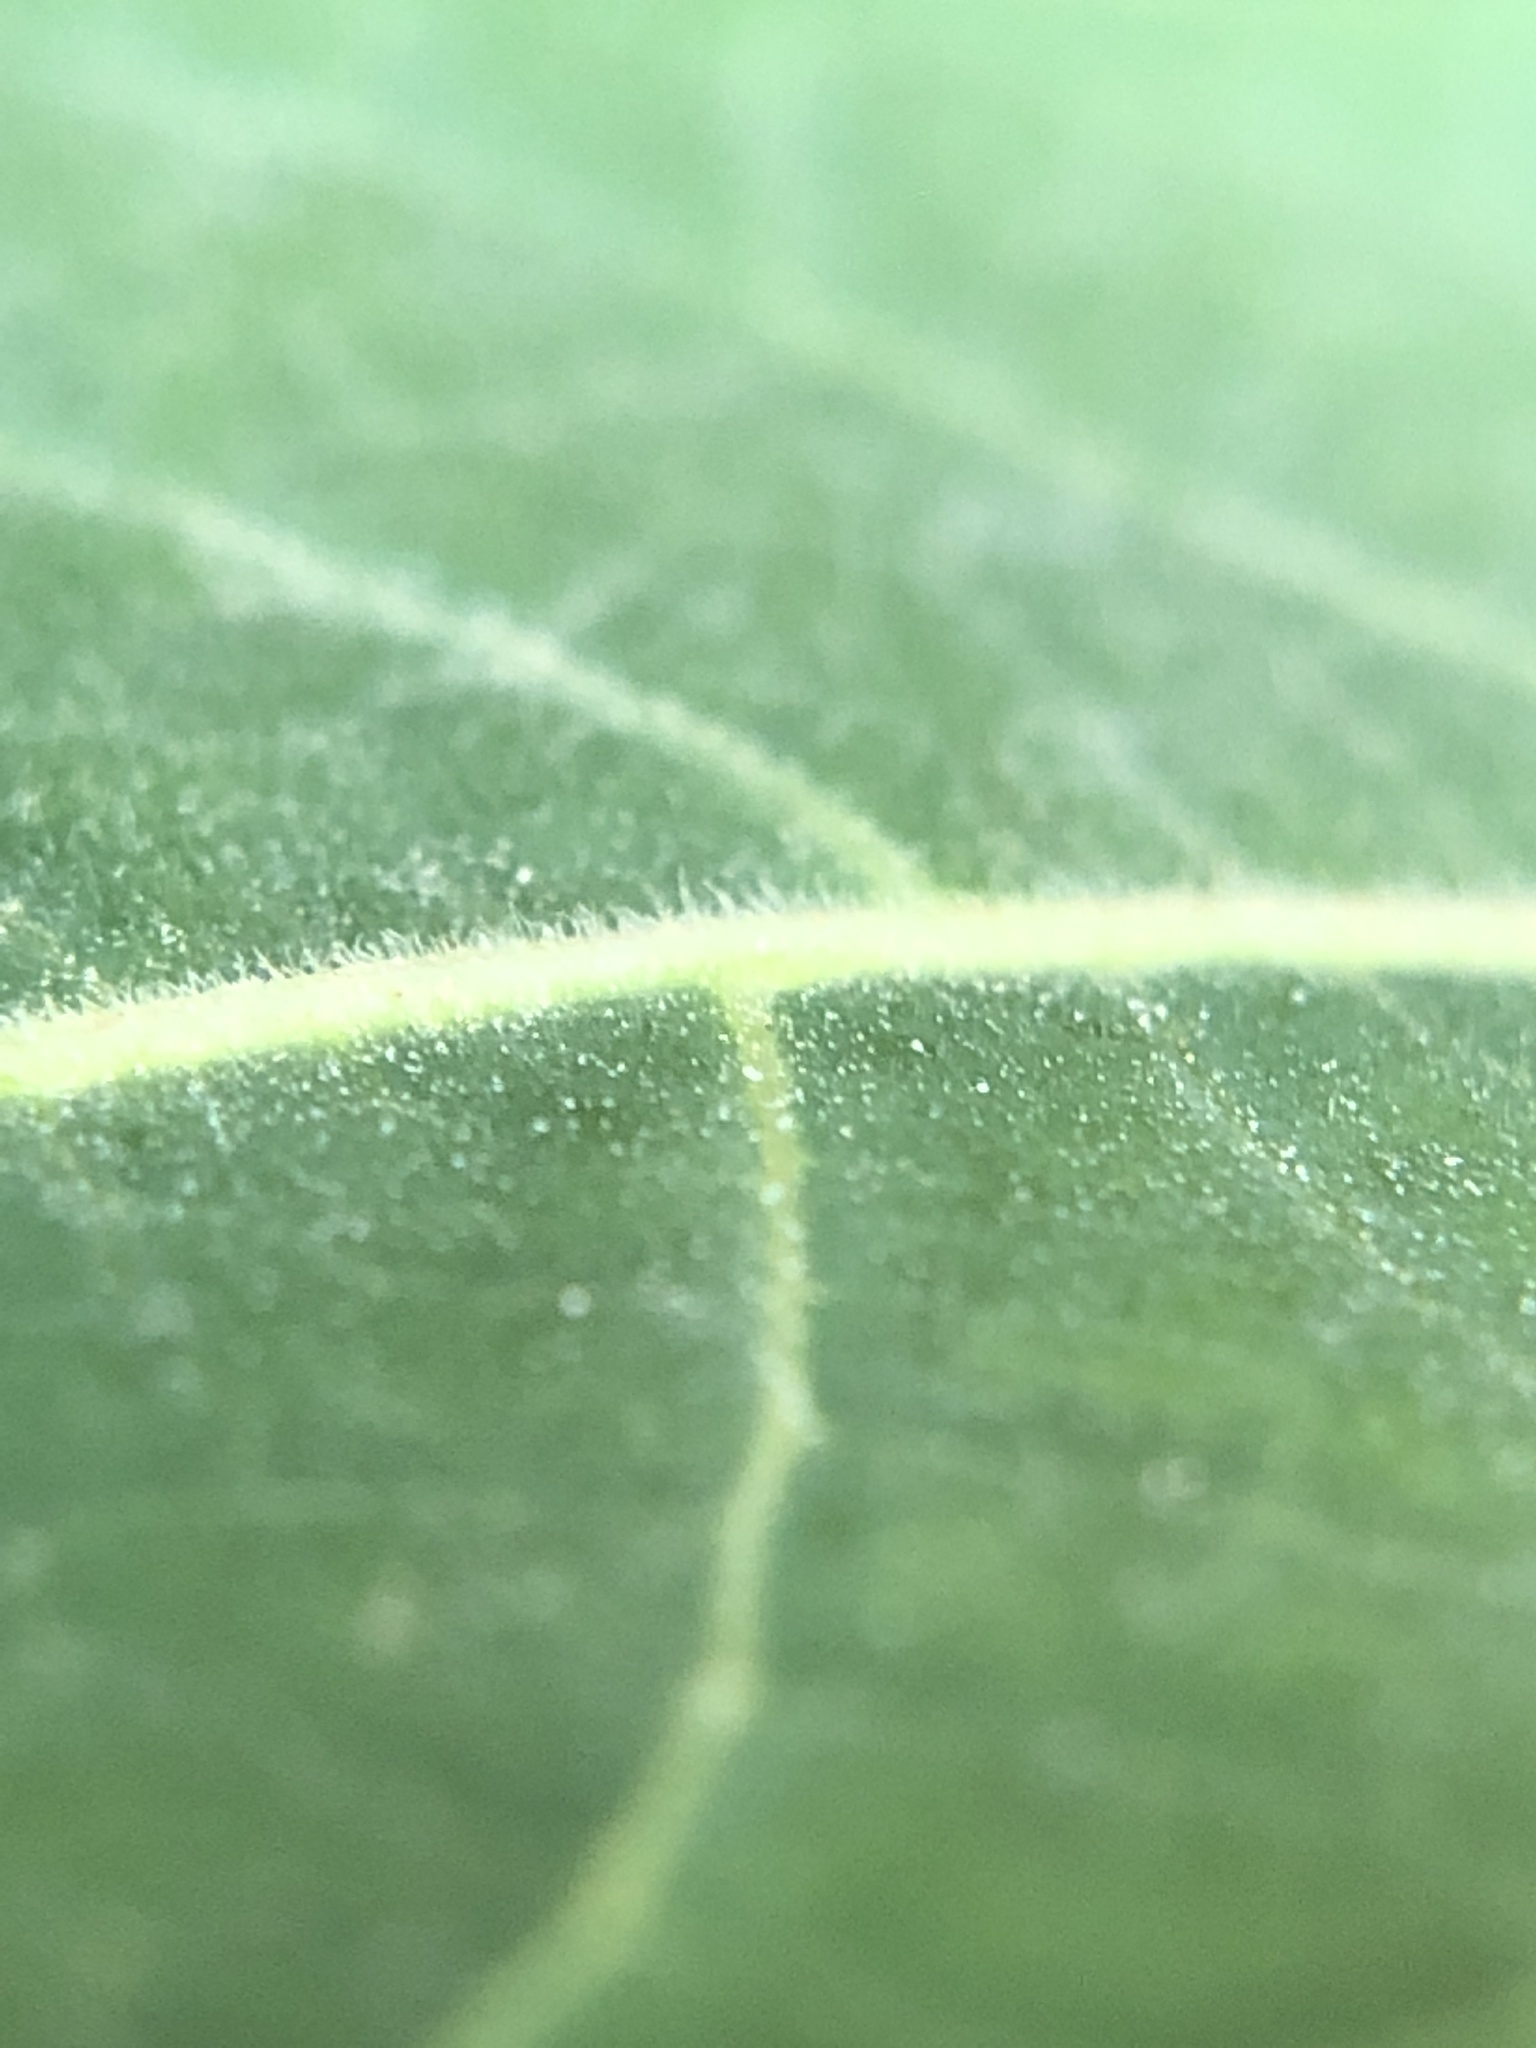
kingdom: Plantae
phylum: Tracheophyta
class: Magnoliopsida
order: Sapindales
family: Simaroubaceae
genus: Ailanthus
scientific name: Ailanthus altissima
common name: Tree-of-heaven
